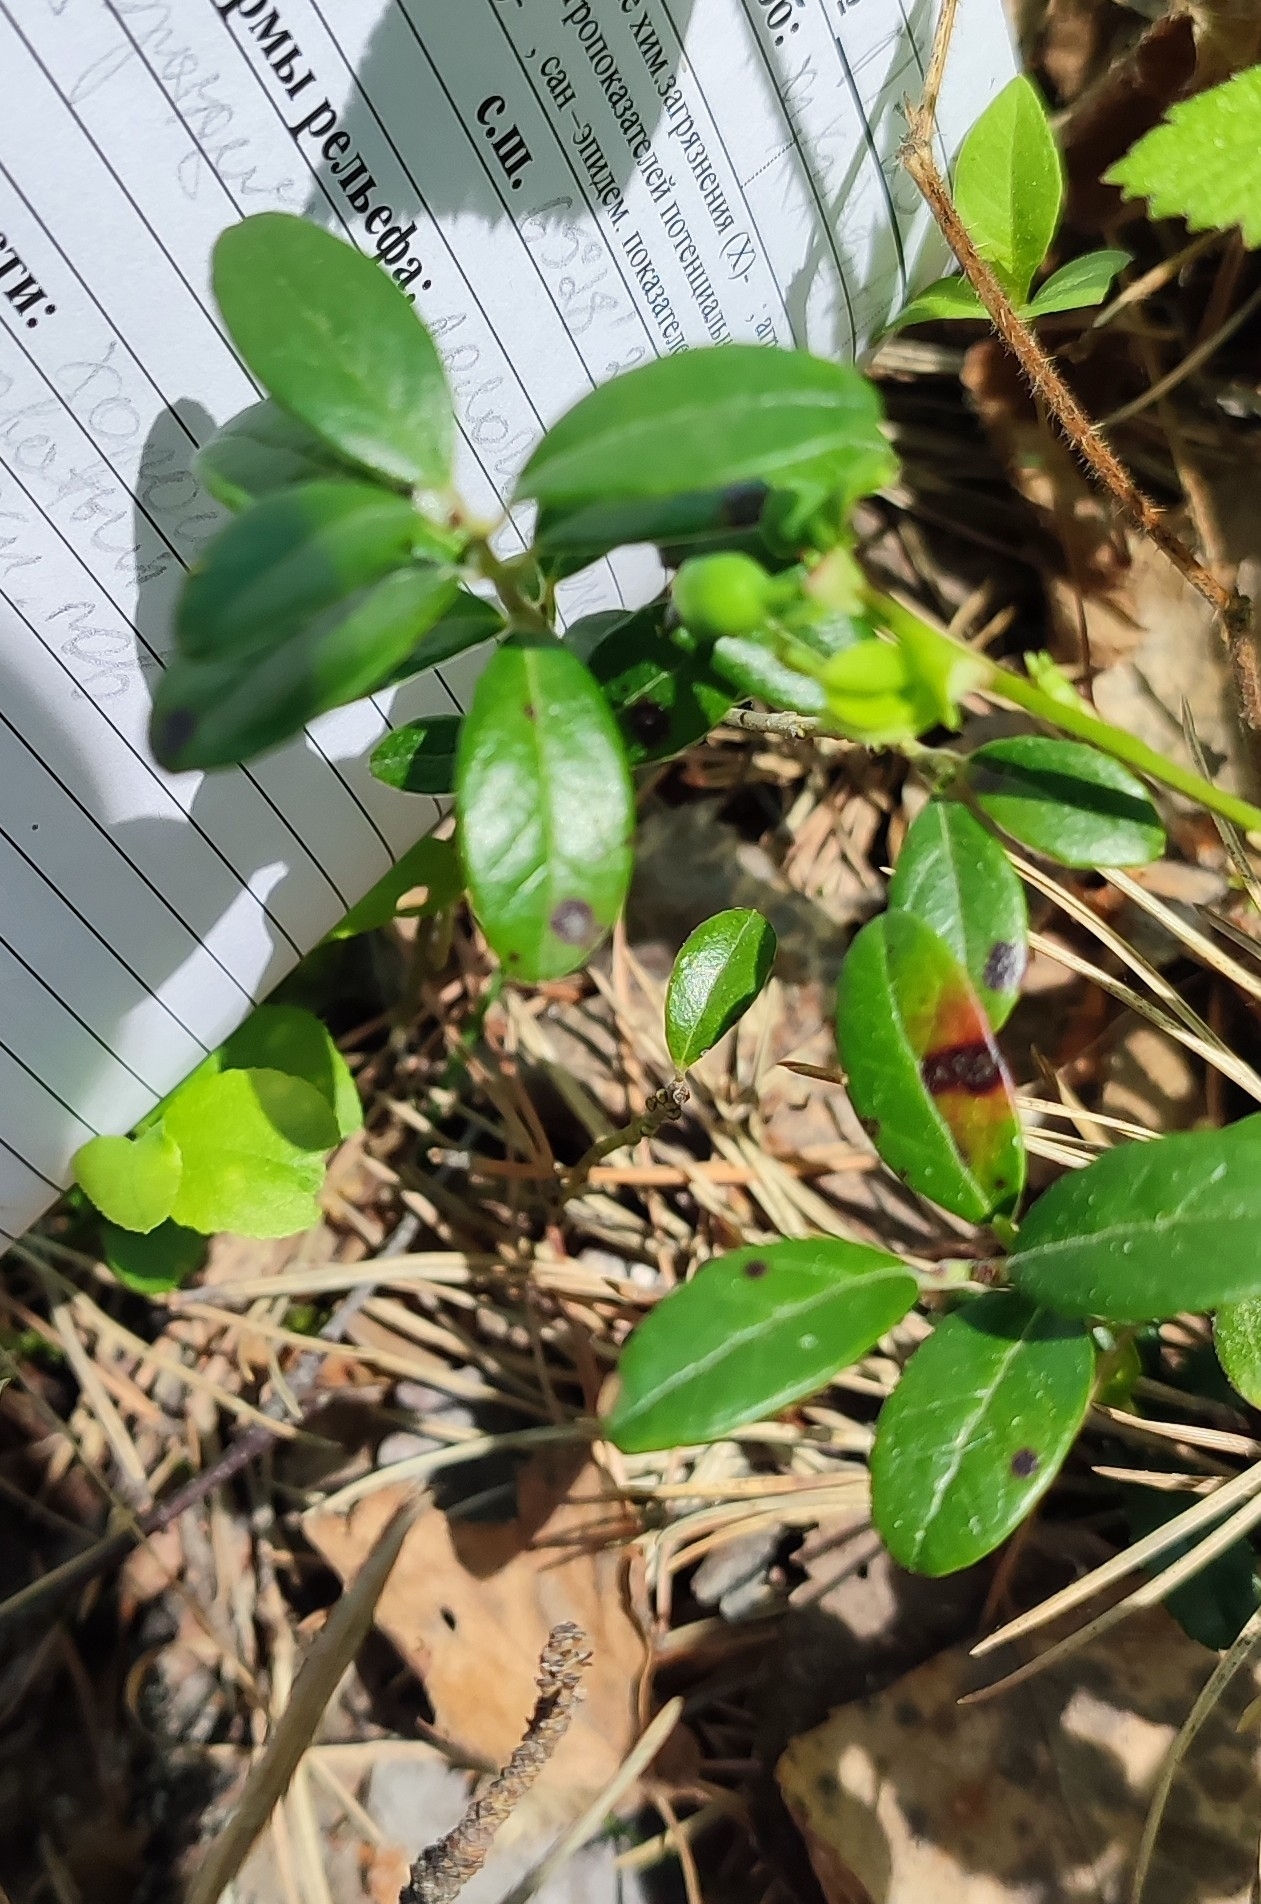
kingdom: Plantae
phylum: Tracheophyta
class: Magnoliopsida
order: Ericales
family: Ericaceae
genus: Vaccinium
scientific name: Vaccinium vitis-idaea
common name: Cowberry
